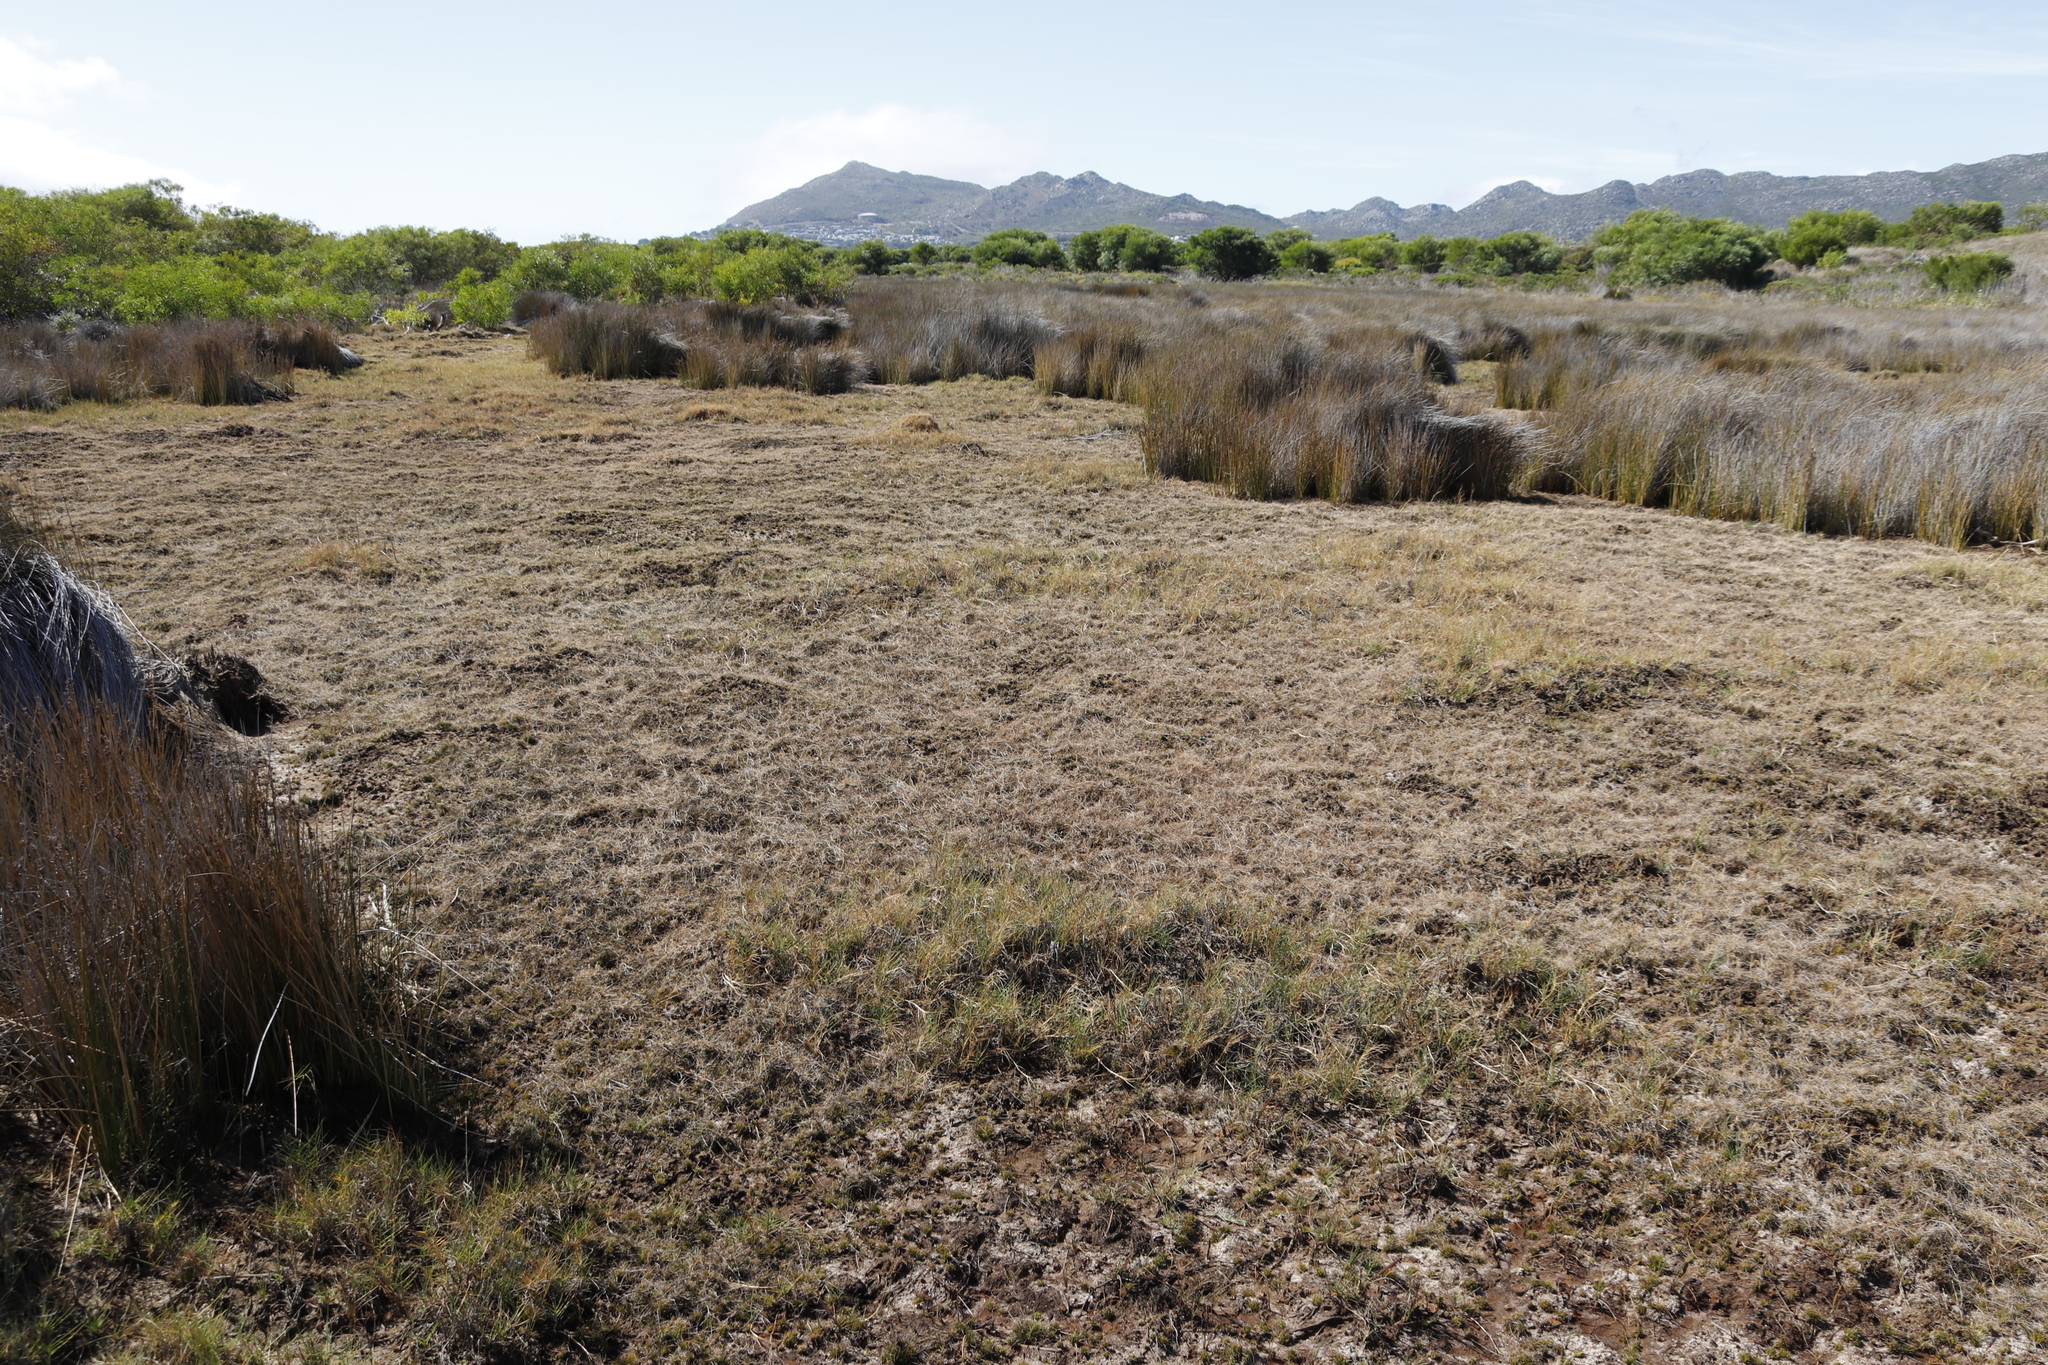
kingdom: Plantae
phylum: Tracheophyta
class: Liliopsida
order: Poales
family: Poaceae
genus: Cynodon
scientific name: Cynodon dactylon
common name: Bermuda grass
